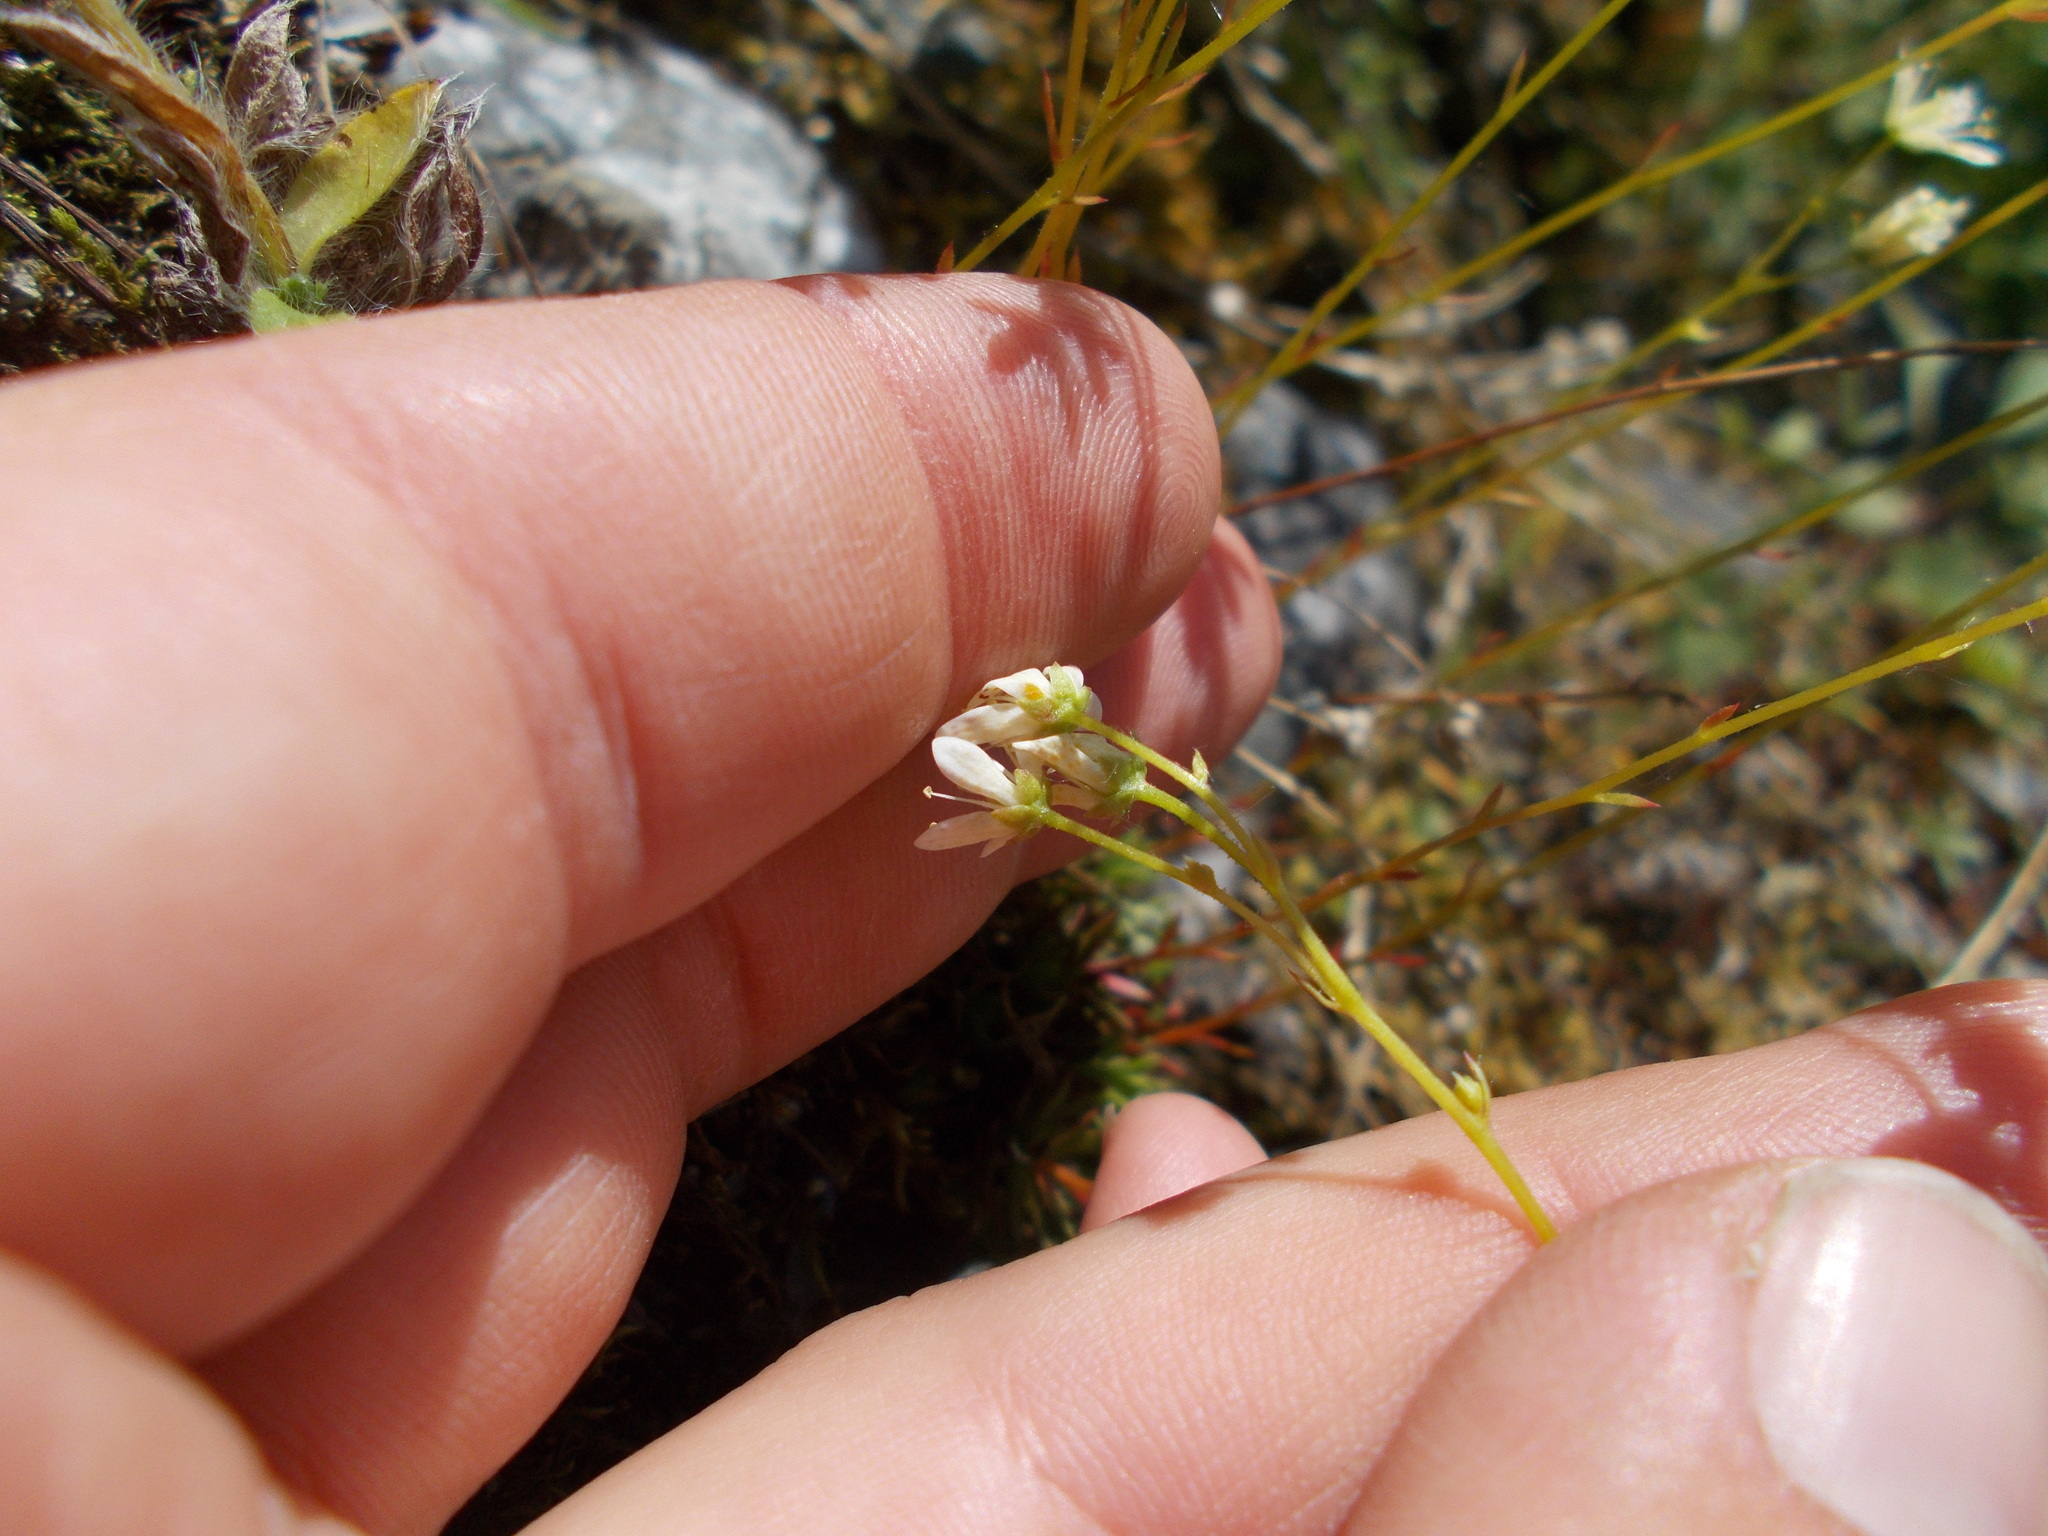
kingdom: Plantae
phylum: Tracheophyta
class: Magnoliopsida
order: Saxifragales
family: Saxifragaceae
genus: Saxifraga
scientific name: Saxifraga
